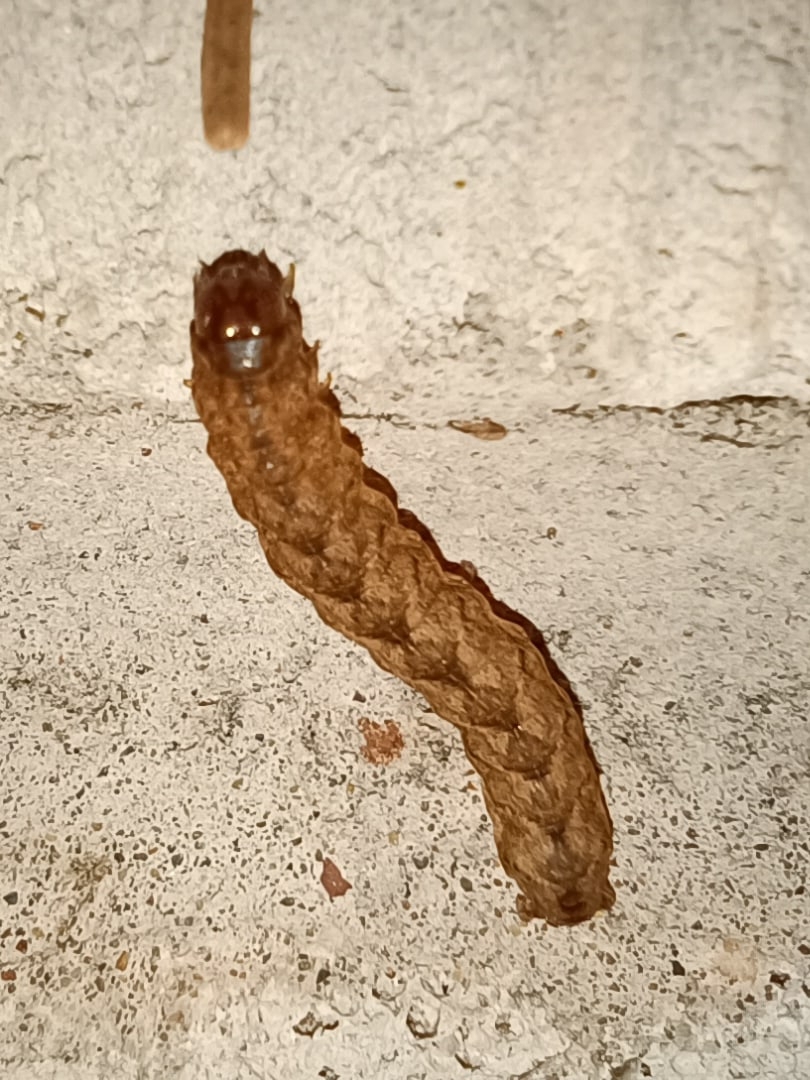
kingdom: Animalia
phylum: Arthropoda
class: Insecta
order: Lepidoptera
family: Noctuidae
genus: Polia
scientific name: Polia nebulosa
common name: Grey arches
